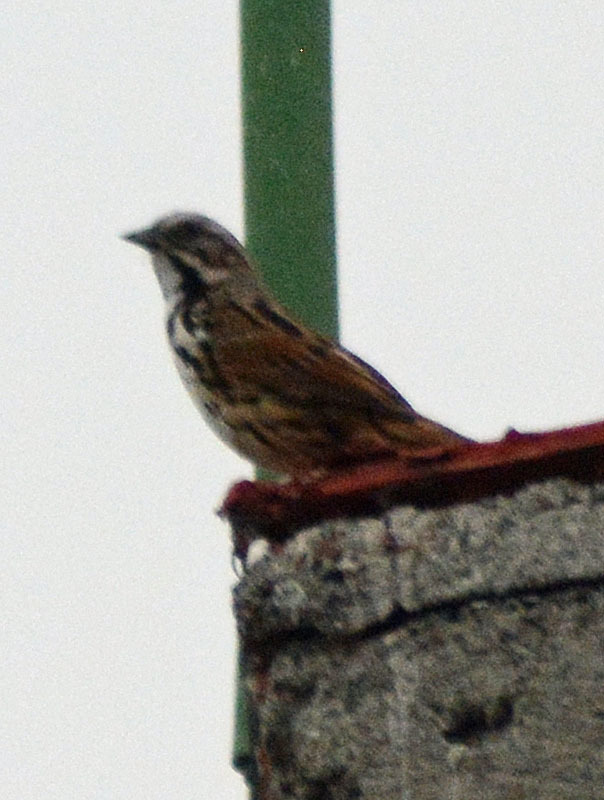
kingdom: Animalia
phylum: Chordata
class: Aves
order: Passeriformes
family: Passerellidae
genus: Melospiza
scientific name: Melospiza melodia
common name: Song sparrow
